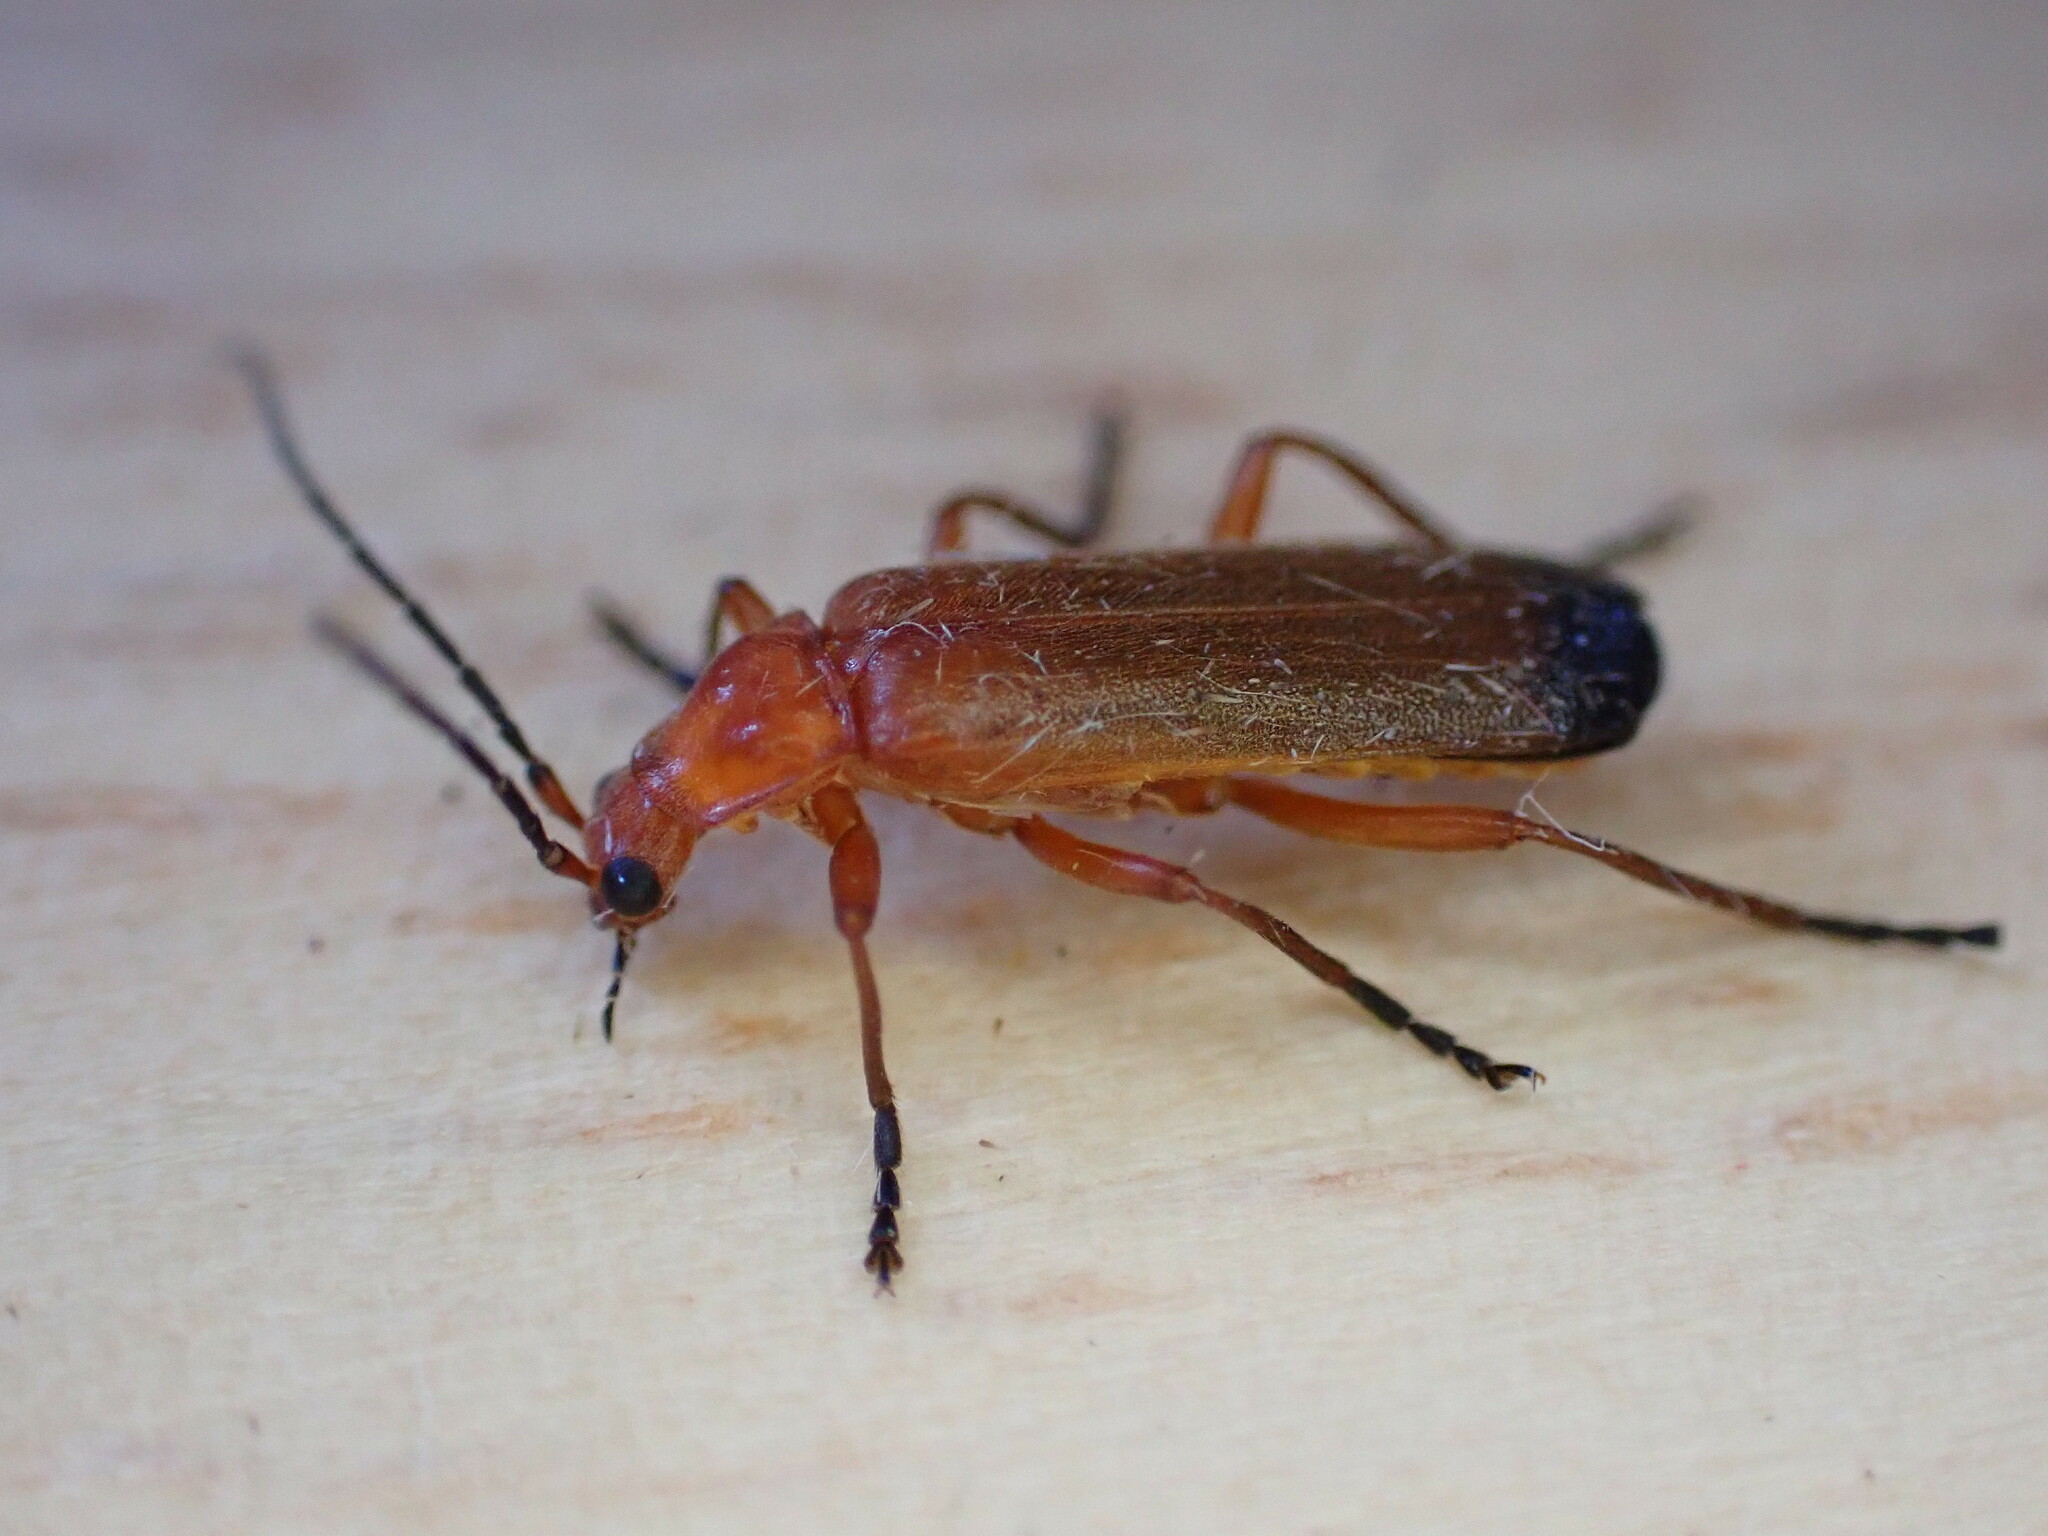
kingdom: Animalia
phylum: Arthropoda
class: Insecta
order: Coleoptera
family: Cantharidae
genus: Rhagonycha
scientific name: Rhagonycha fulva
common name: Common red soldier beetle
